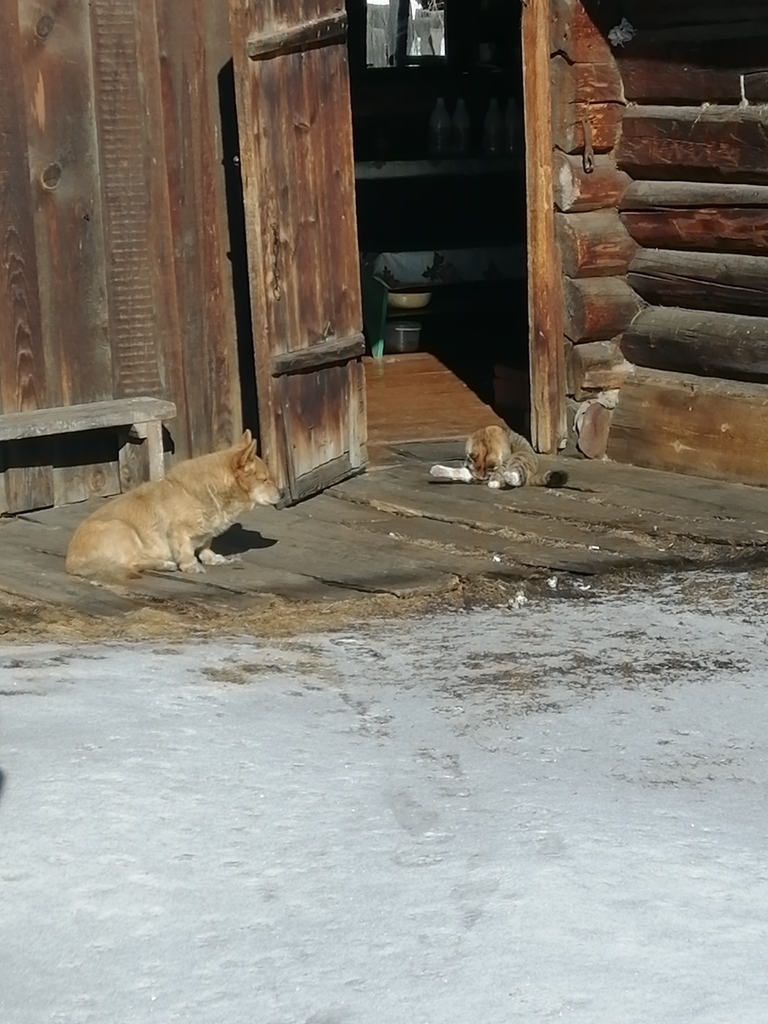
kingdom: Animalia
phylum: Chordata
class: Mammalia
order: Carnivora
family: Felidae
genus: Felis
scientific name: Felis catus
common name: Domestic cat
